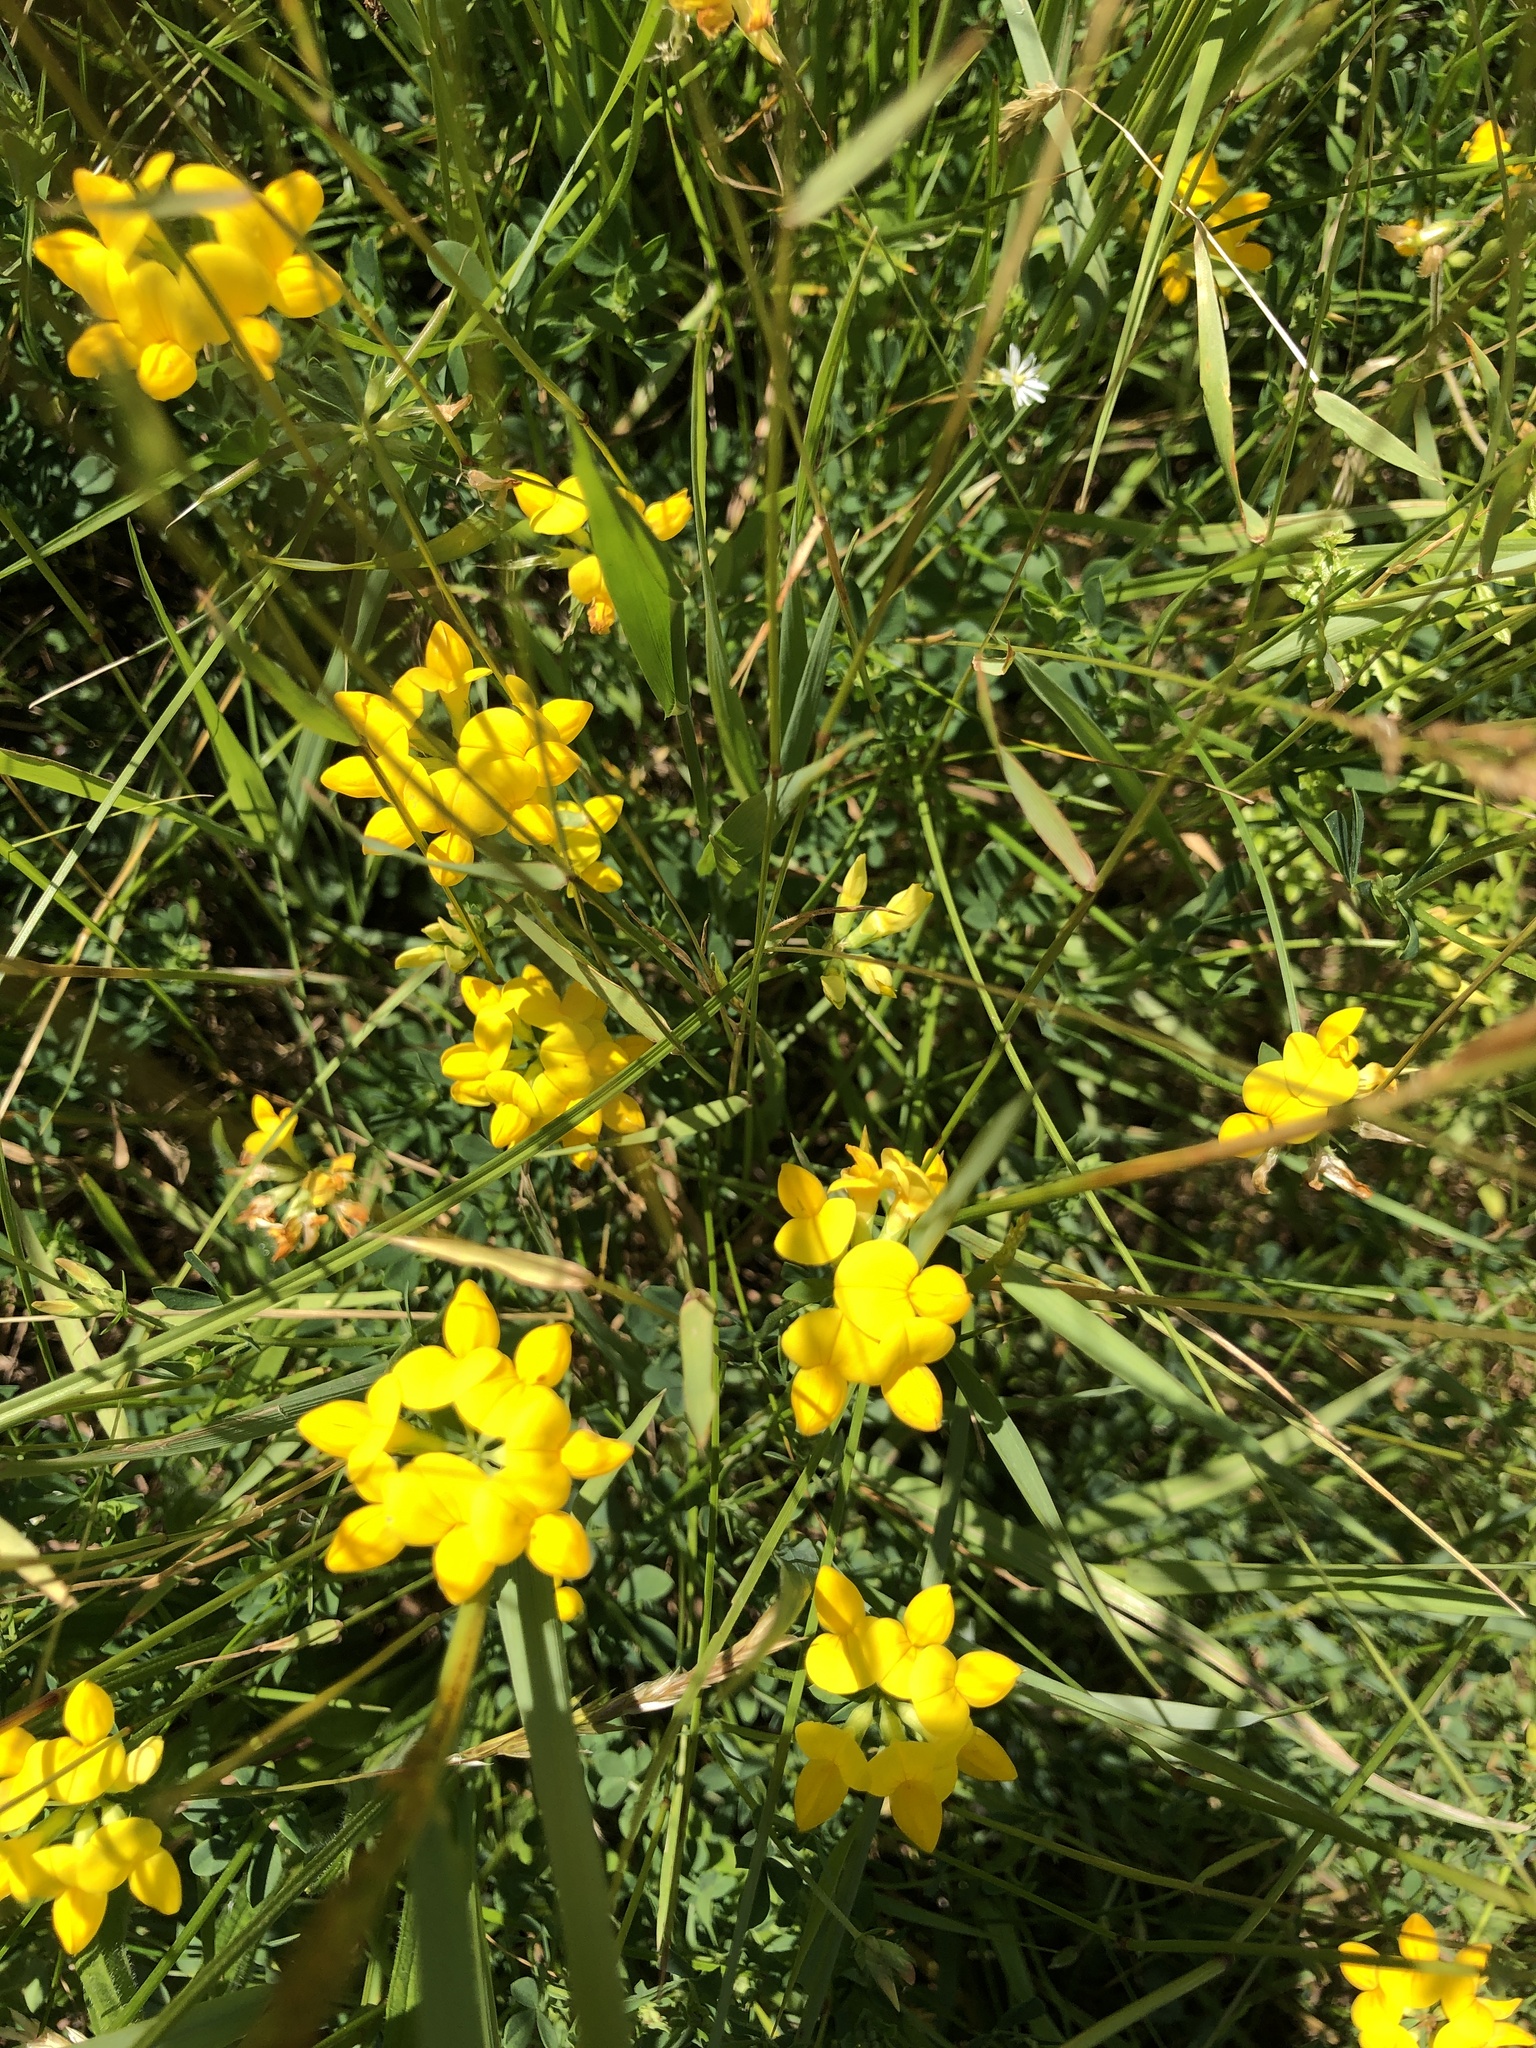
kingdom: Plantae
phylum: Tracheophyta
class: Magnoliopsida
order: Fabales
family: Fabaceae
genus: Lotus
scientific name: Lotus
